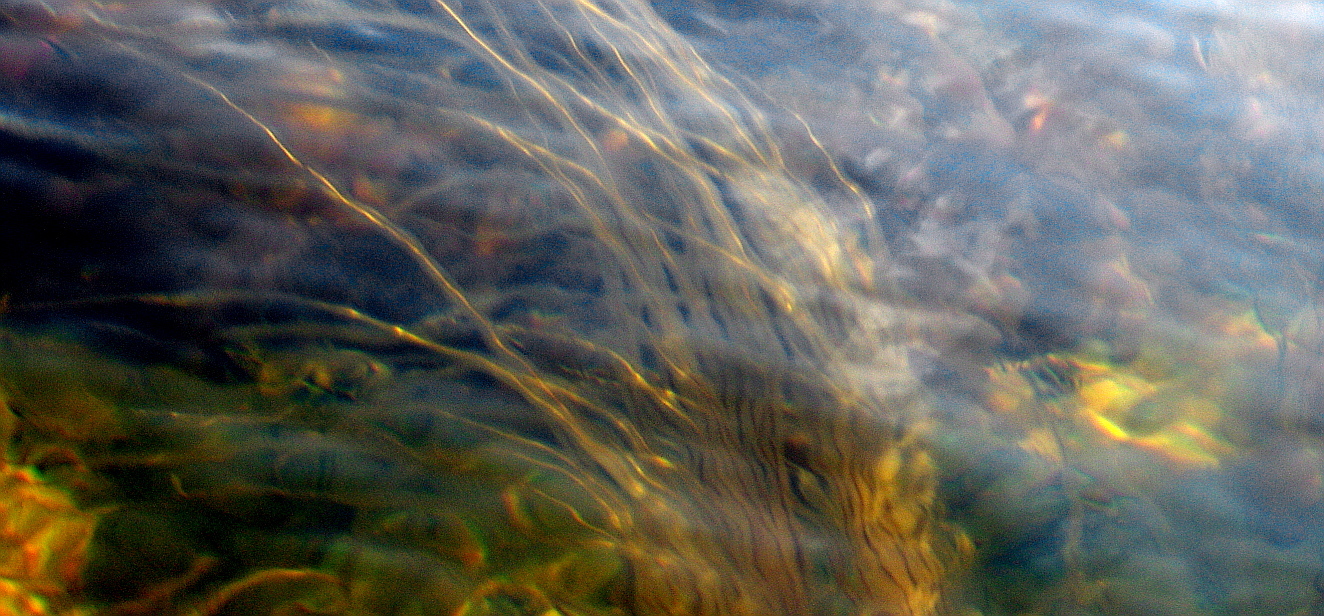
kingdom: Chromista
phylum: Ochrophyta
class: Phaeophyceae
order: Tilopteridales
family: Halosiphonaceae
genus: Halosiphon
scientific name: Halosiphon tomentosus
